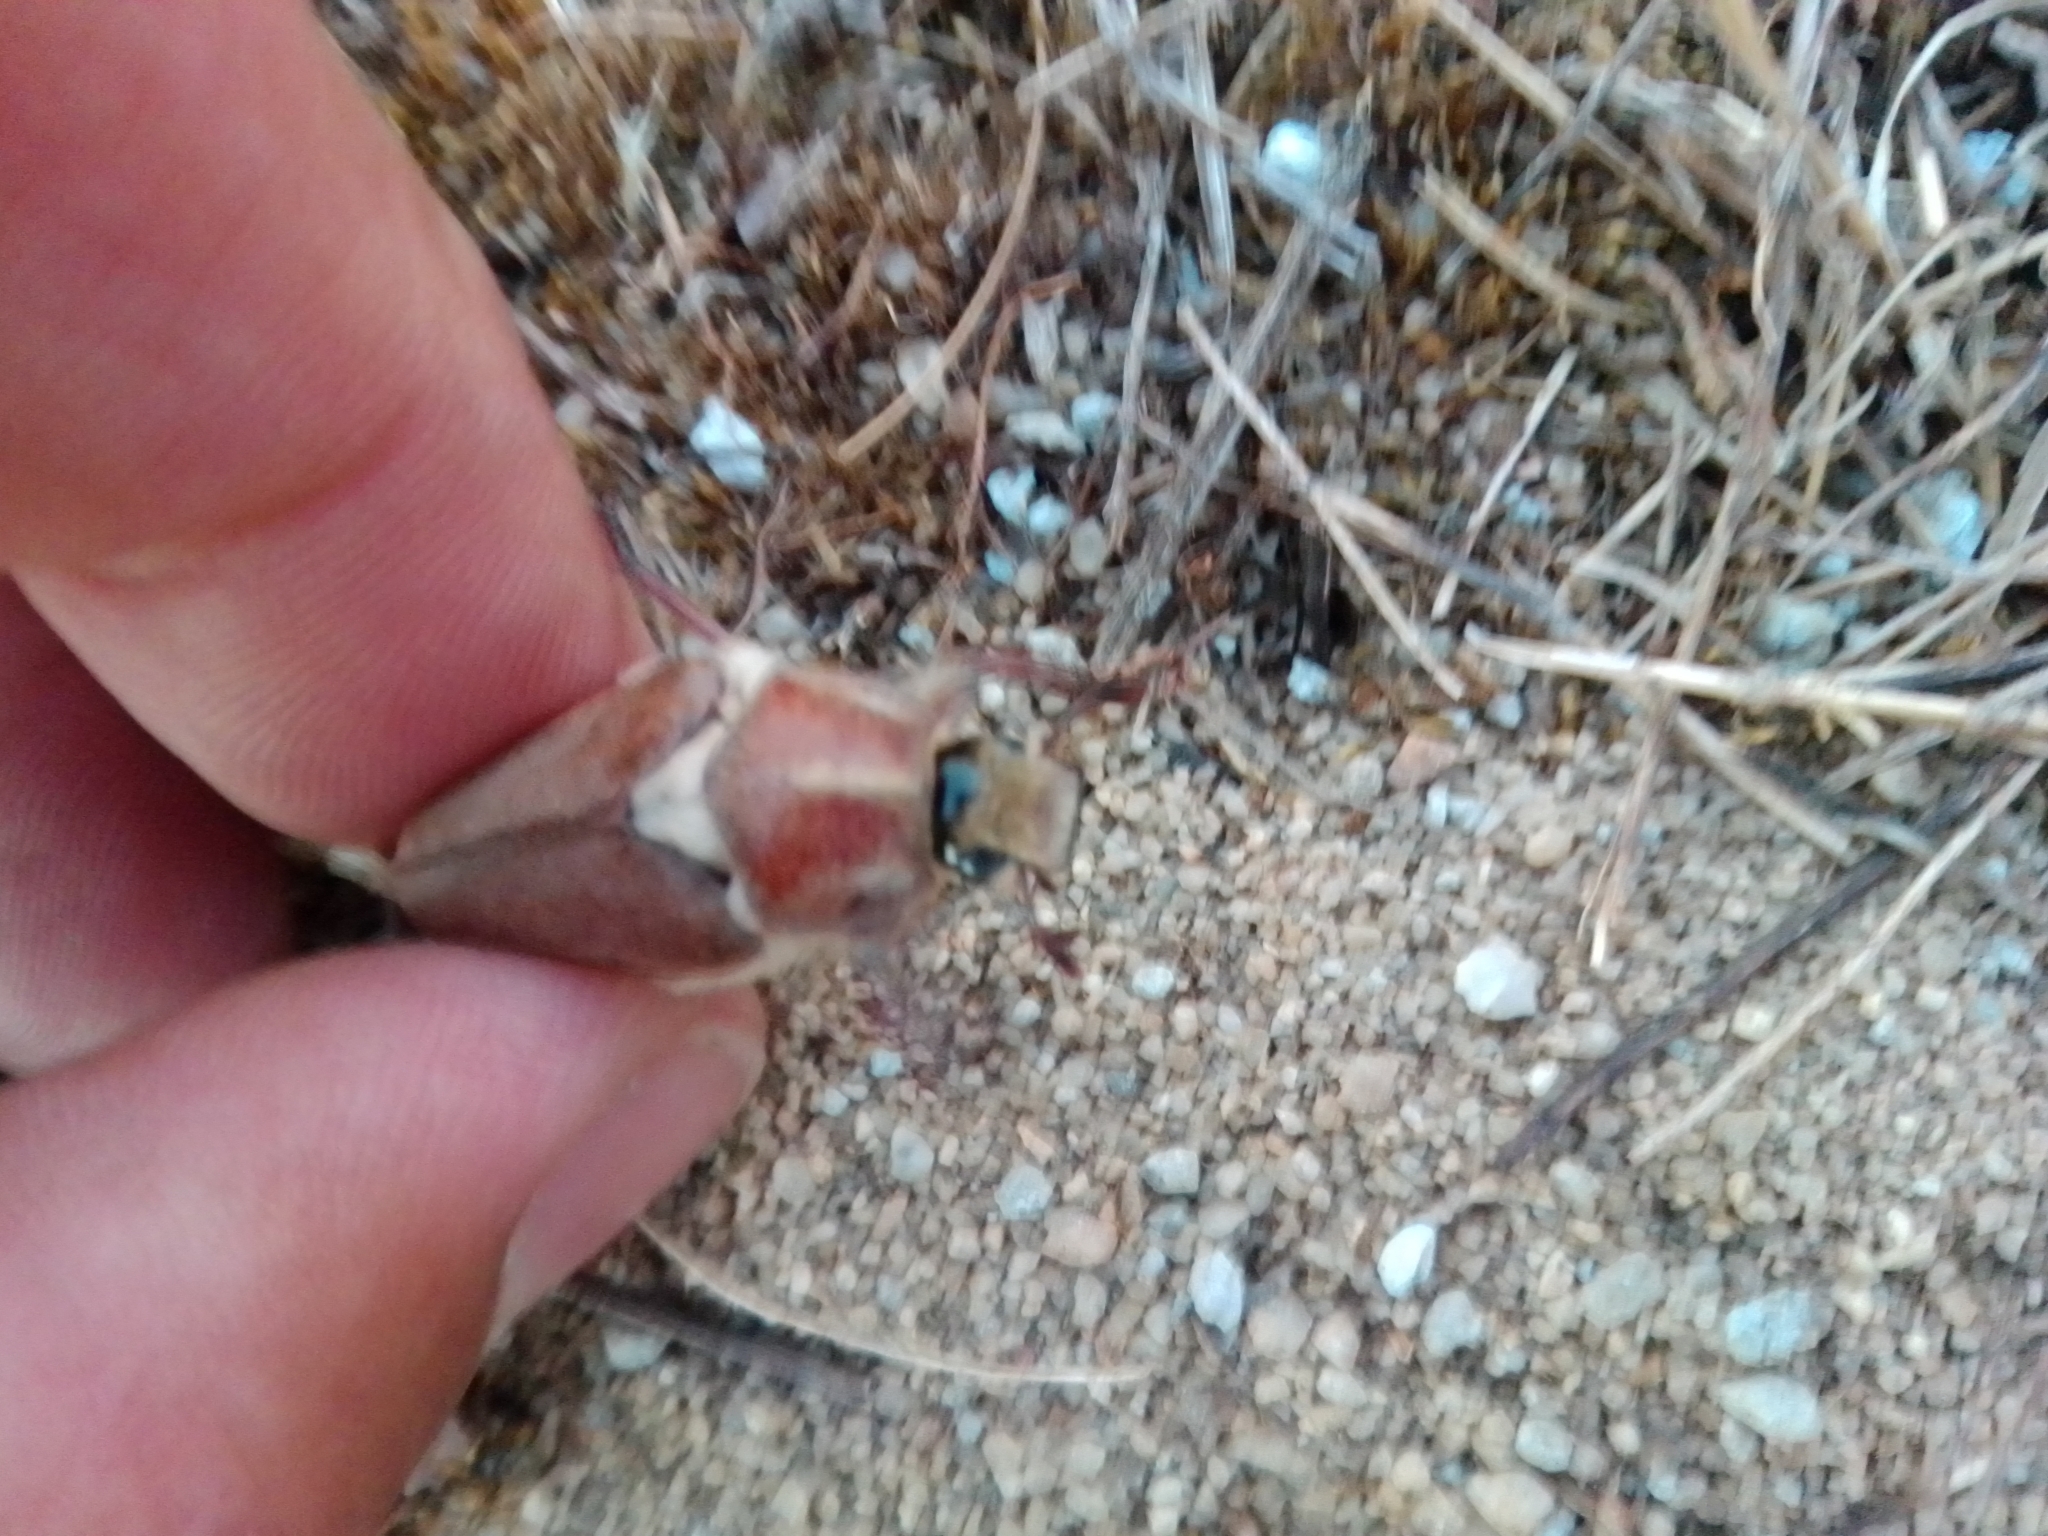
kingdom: Animalia
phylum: Arthropoda
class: Insecta
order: Coleoptera
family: Scarabaeidae
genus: Anoxia
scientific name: Anoxia villosa
